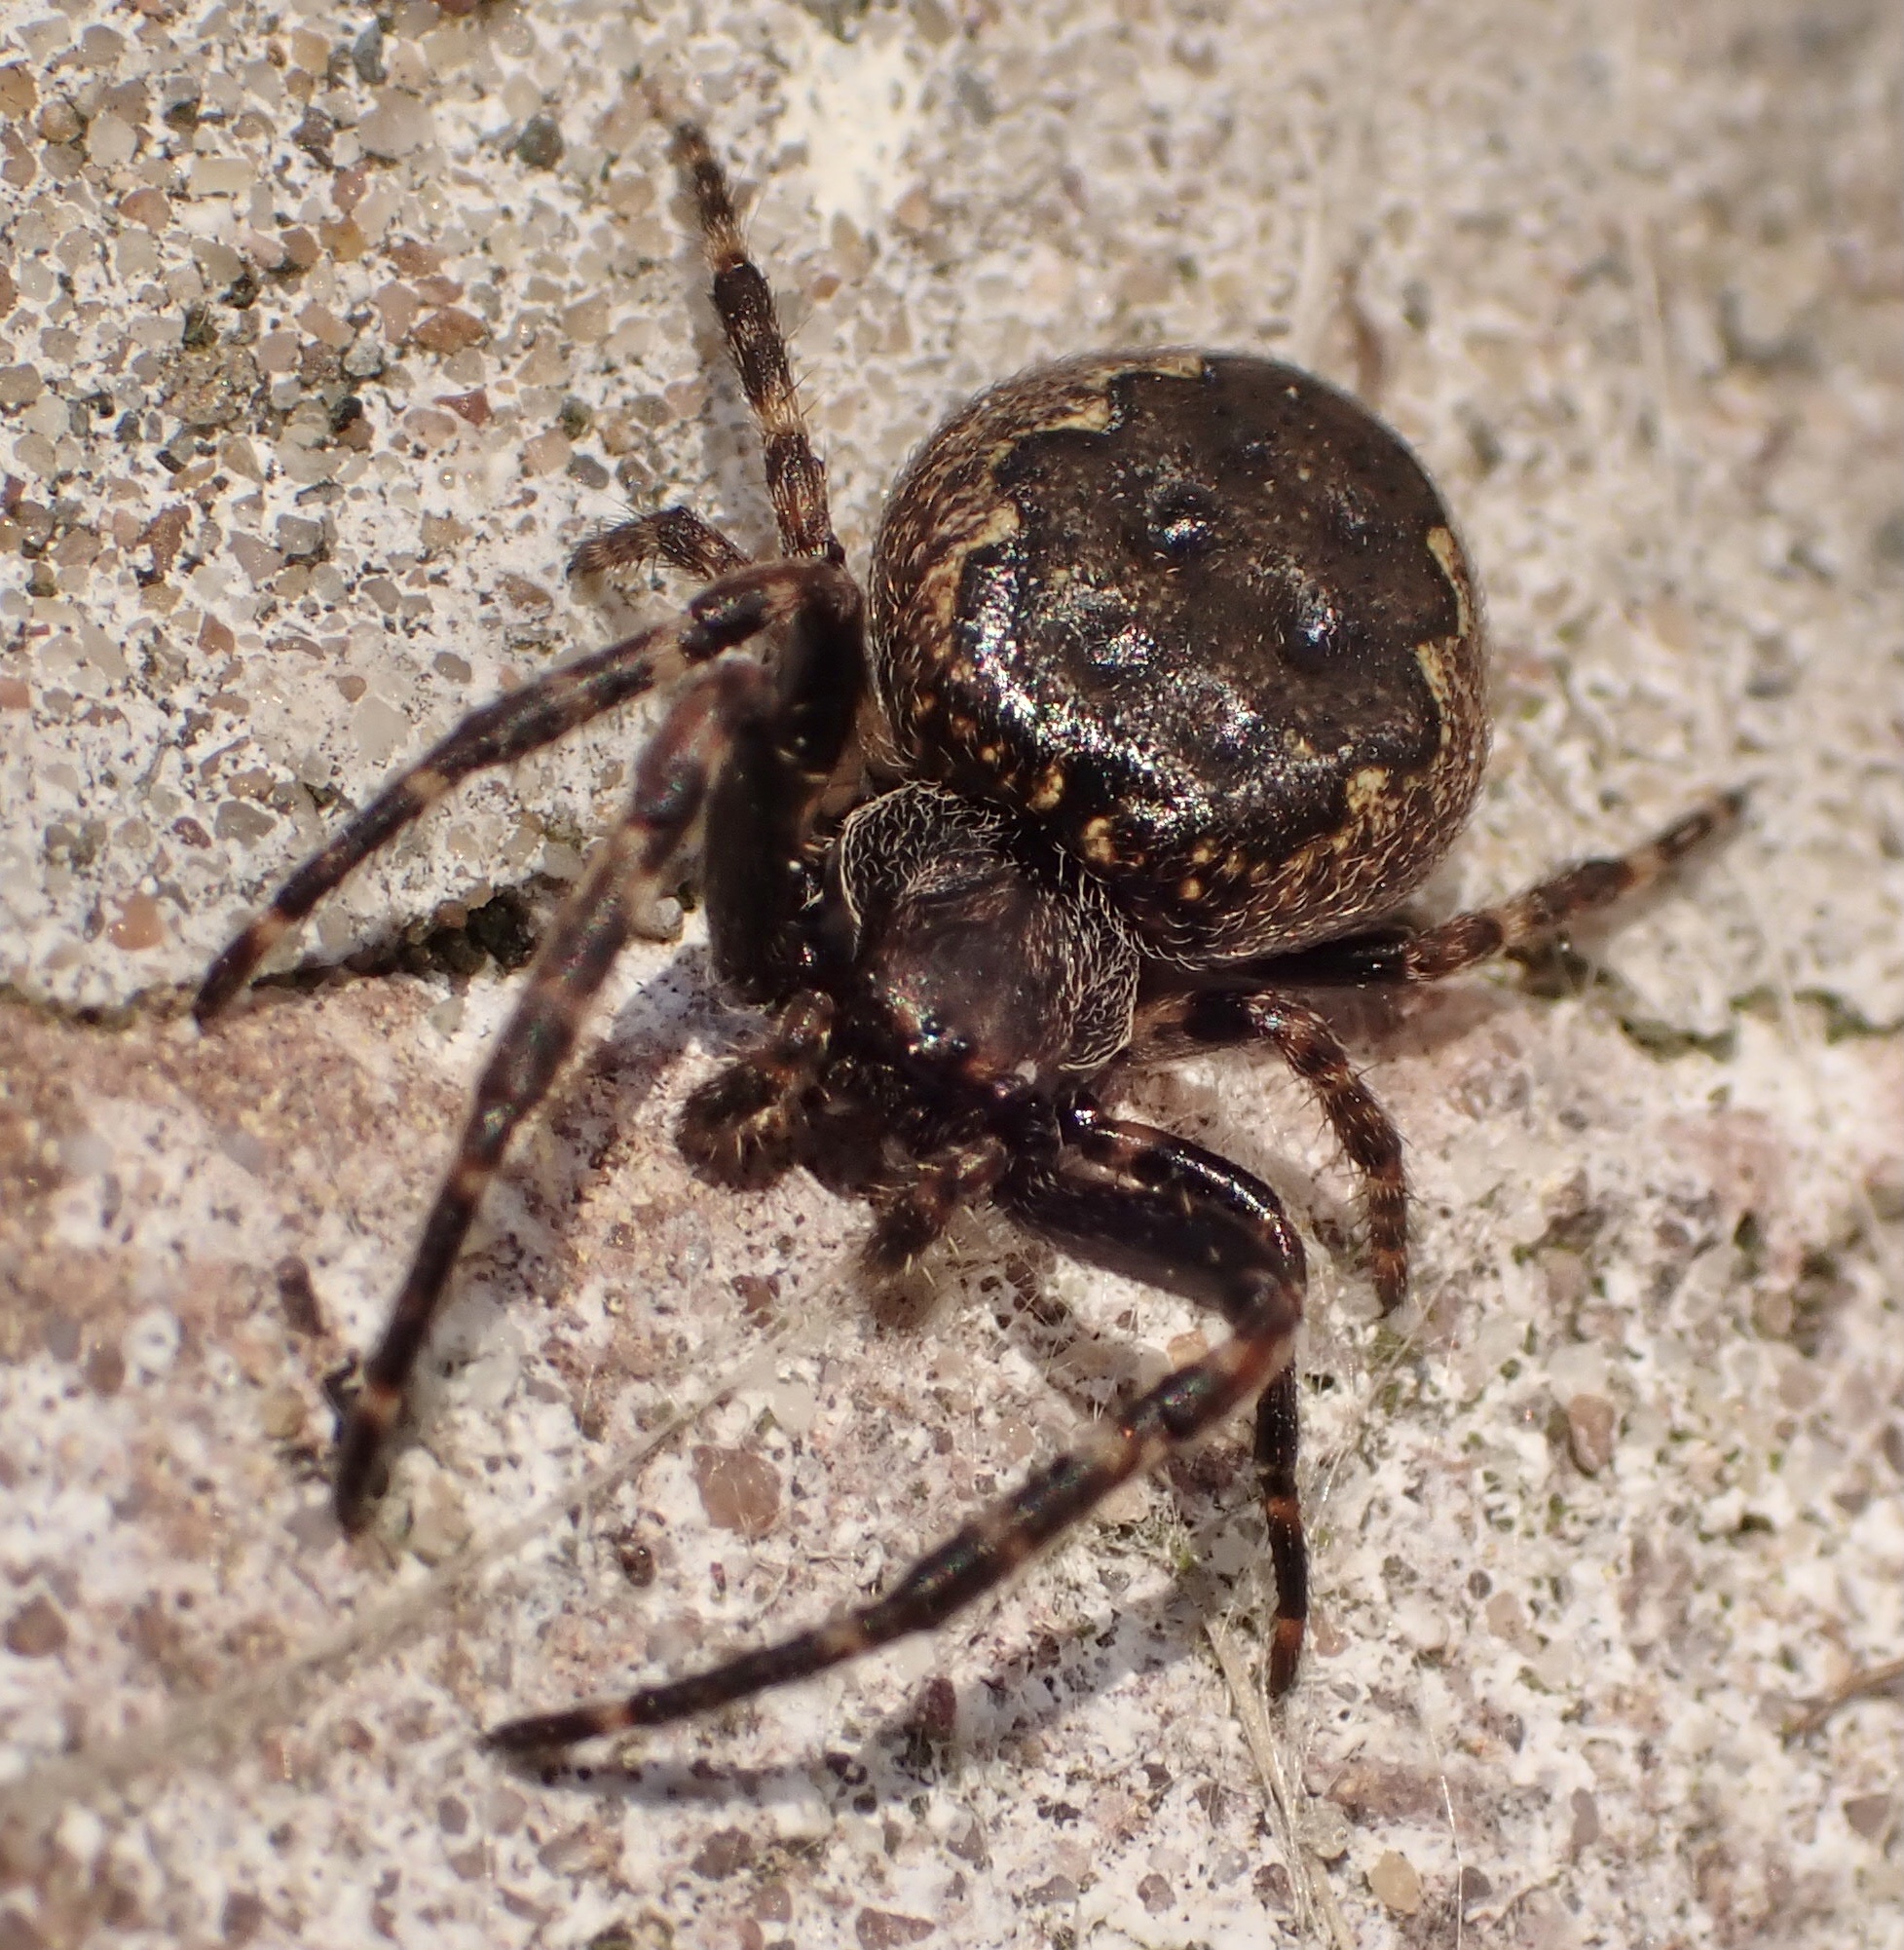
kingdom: Animalia
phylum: Arthropoda
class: Arachnida
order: Araneae
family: Araneidae
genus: Nuctenea
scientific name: Nuctenea umbratica
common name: Toad spider
